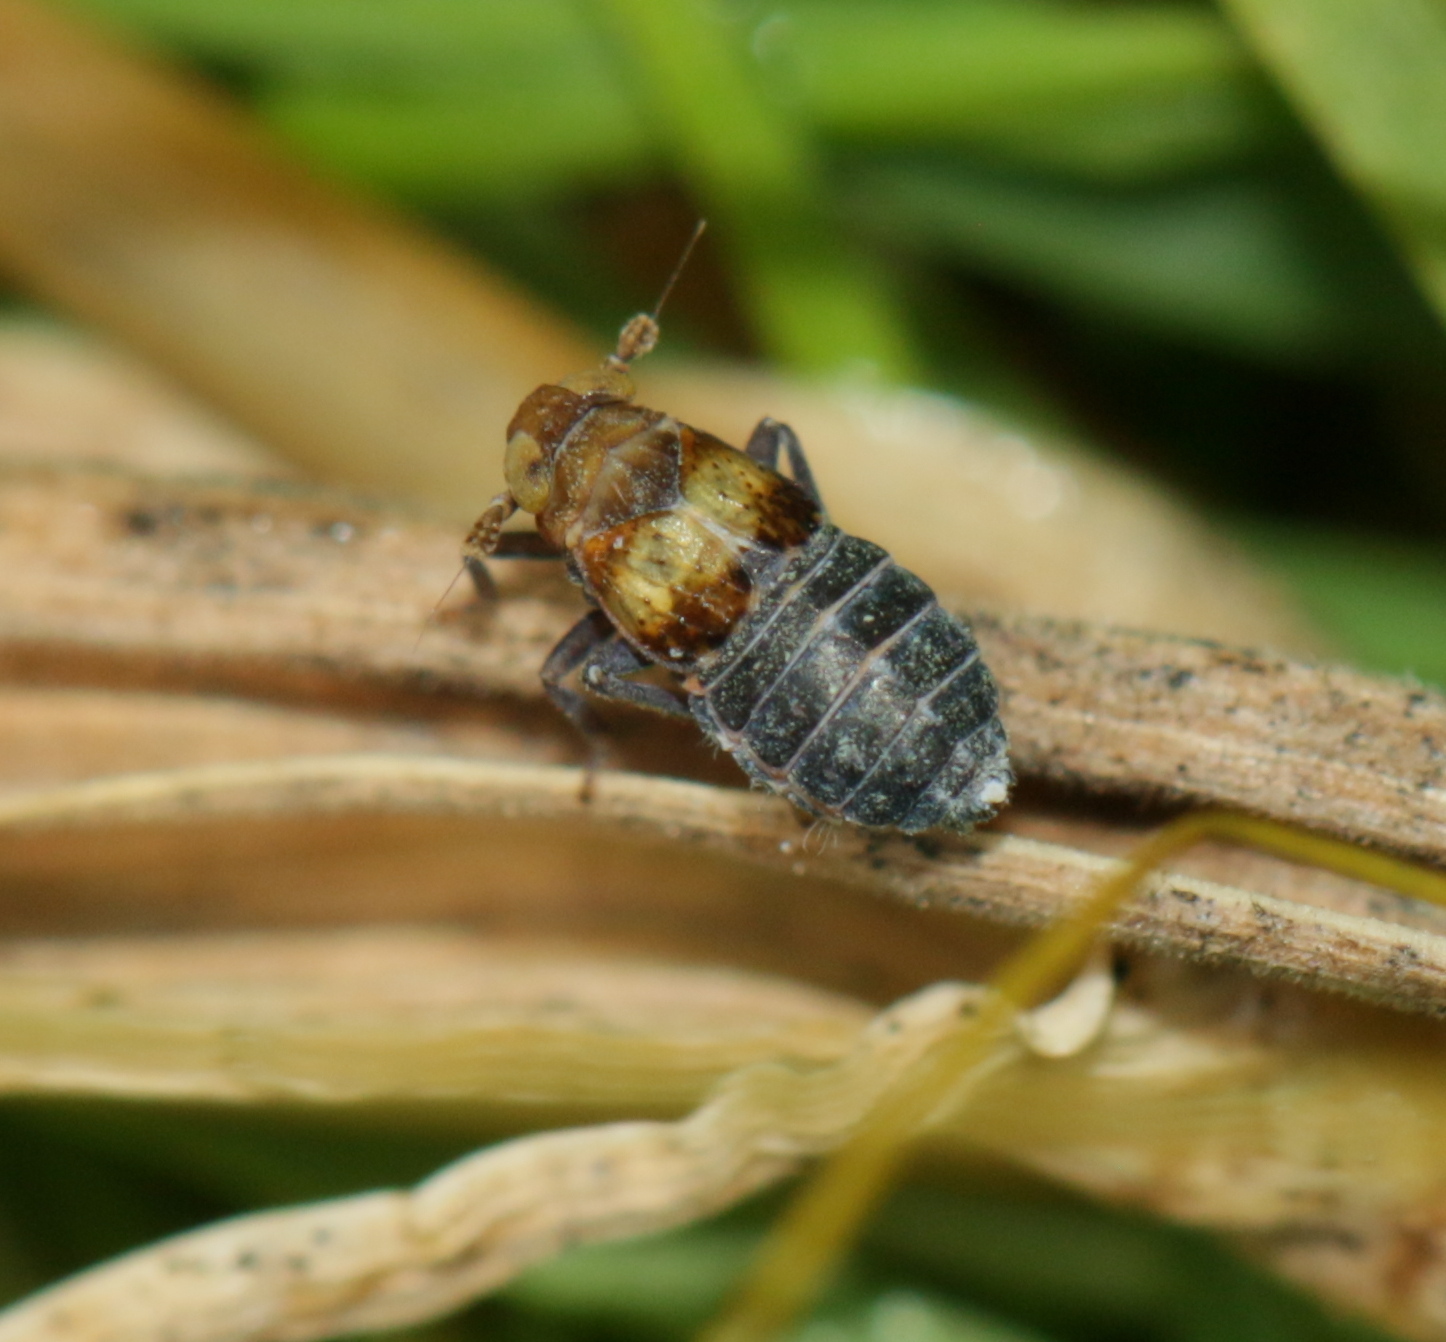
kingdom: Animalia
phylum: Arthropoda
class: Insecta
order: Hemiptera
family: Delphacidae
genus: Conomelus
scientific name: Conomelus anceps
